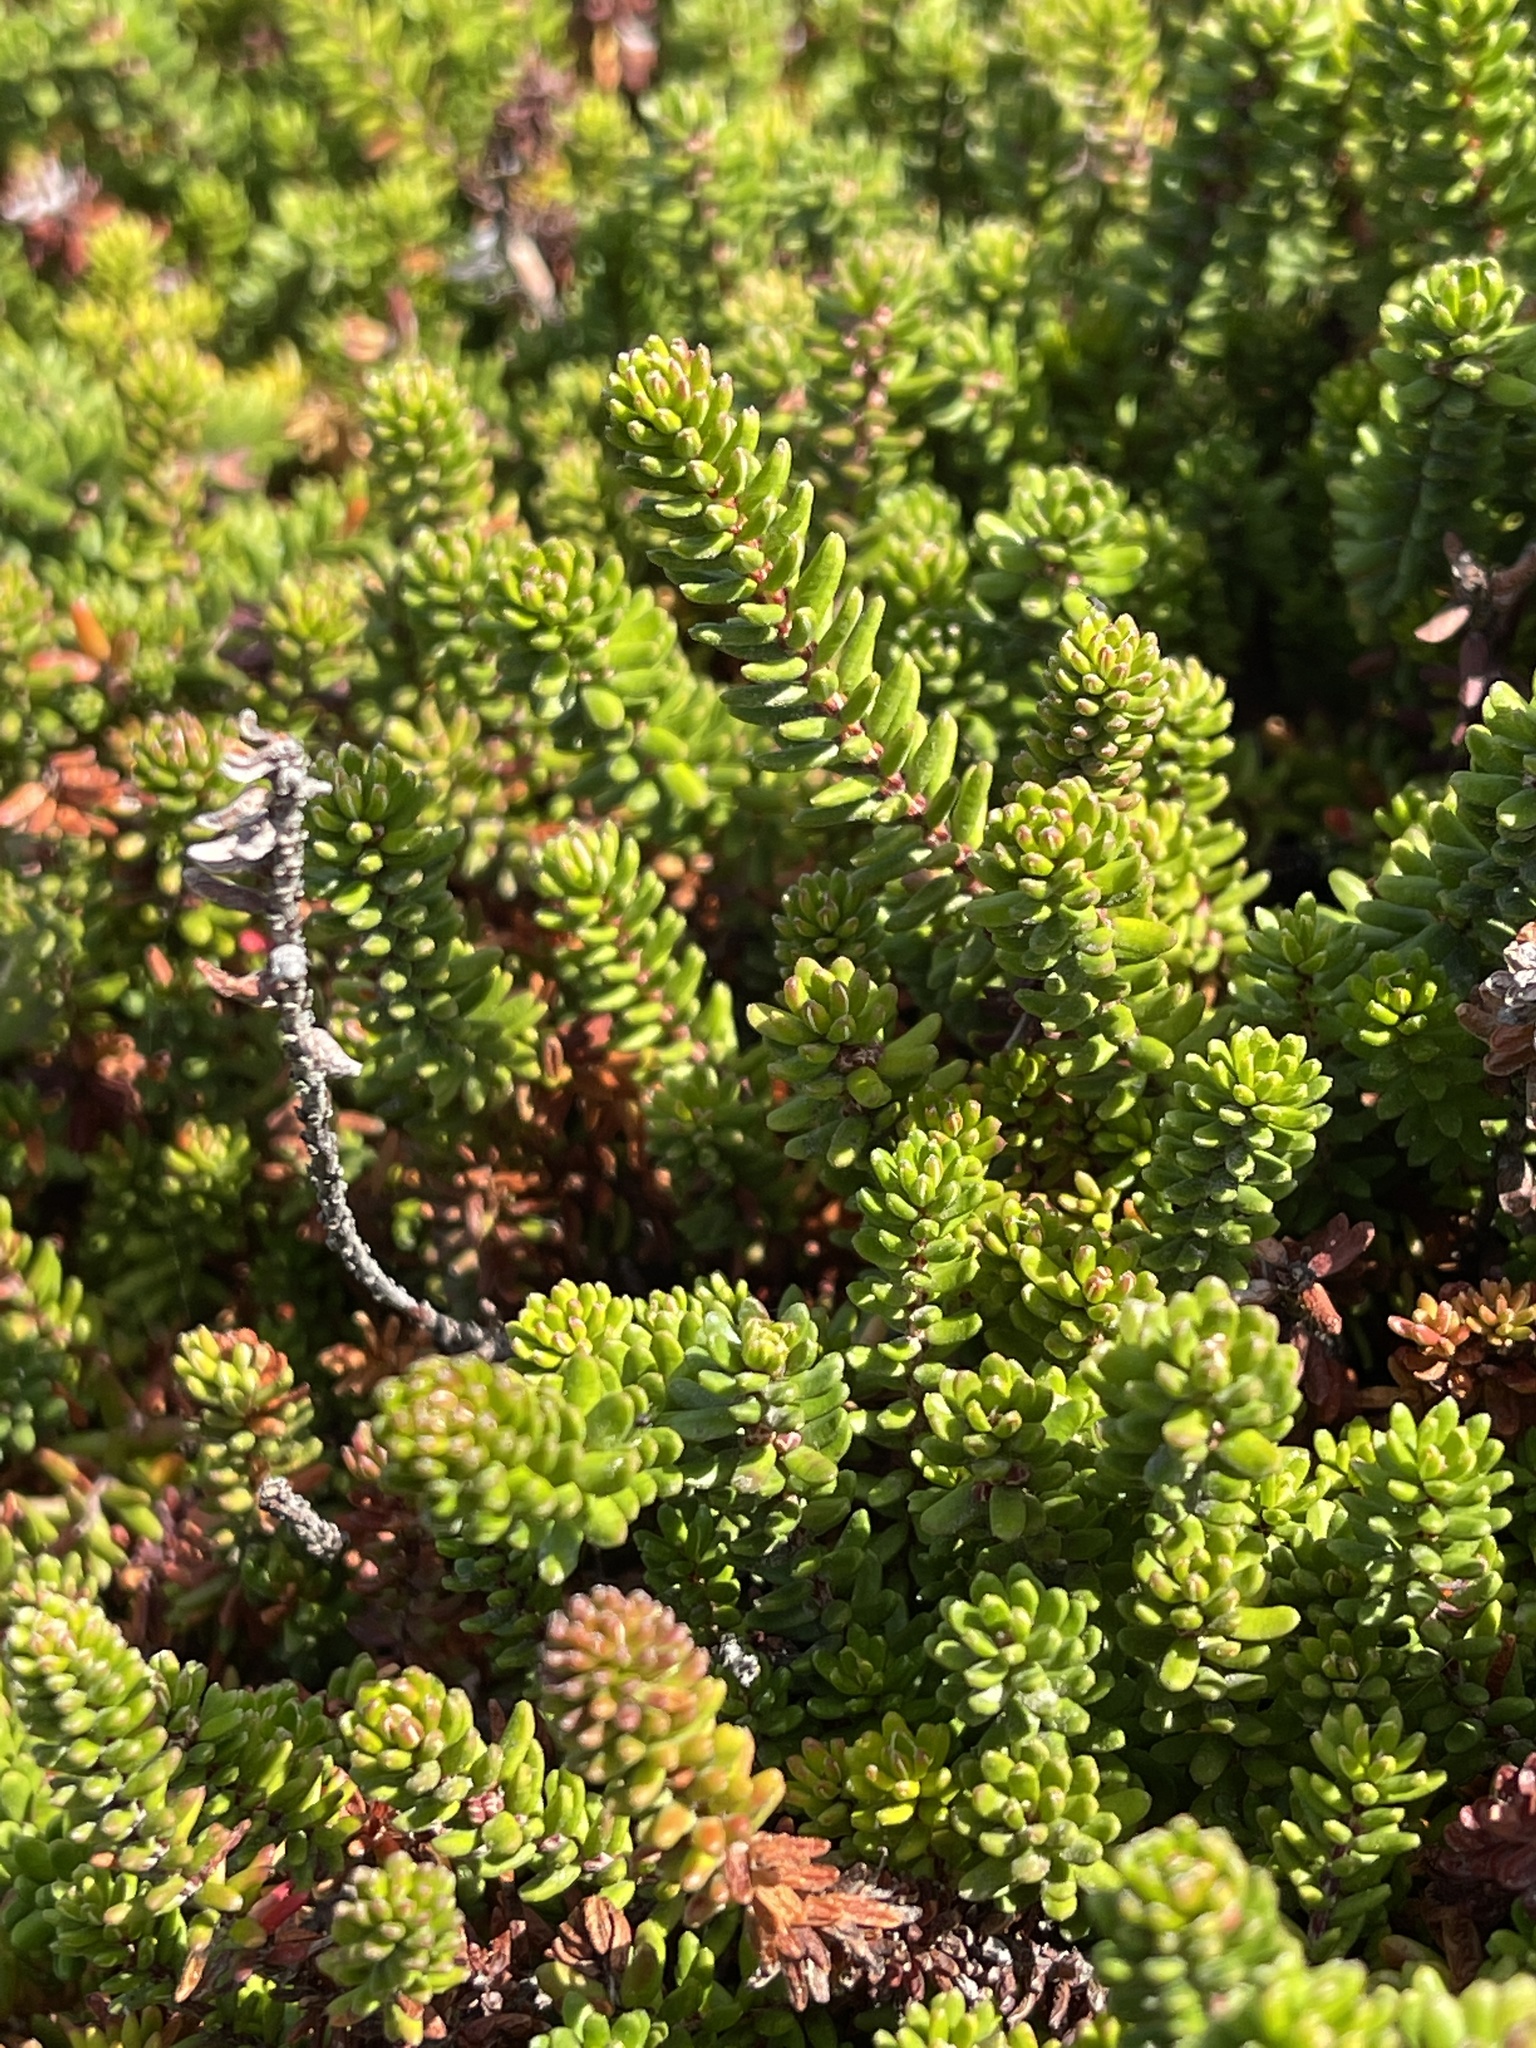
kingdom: Plantae
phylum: Tracheophyta
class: Magnoliopsida
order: Ericales
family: Ericaceae
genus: Empetrum
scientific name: Empetrum nigrum
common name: Black crowberry
